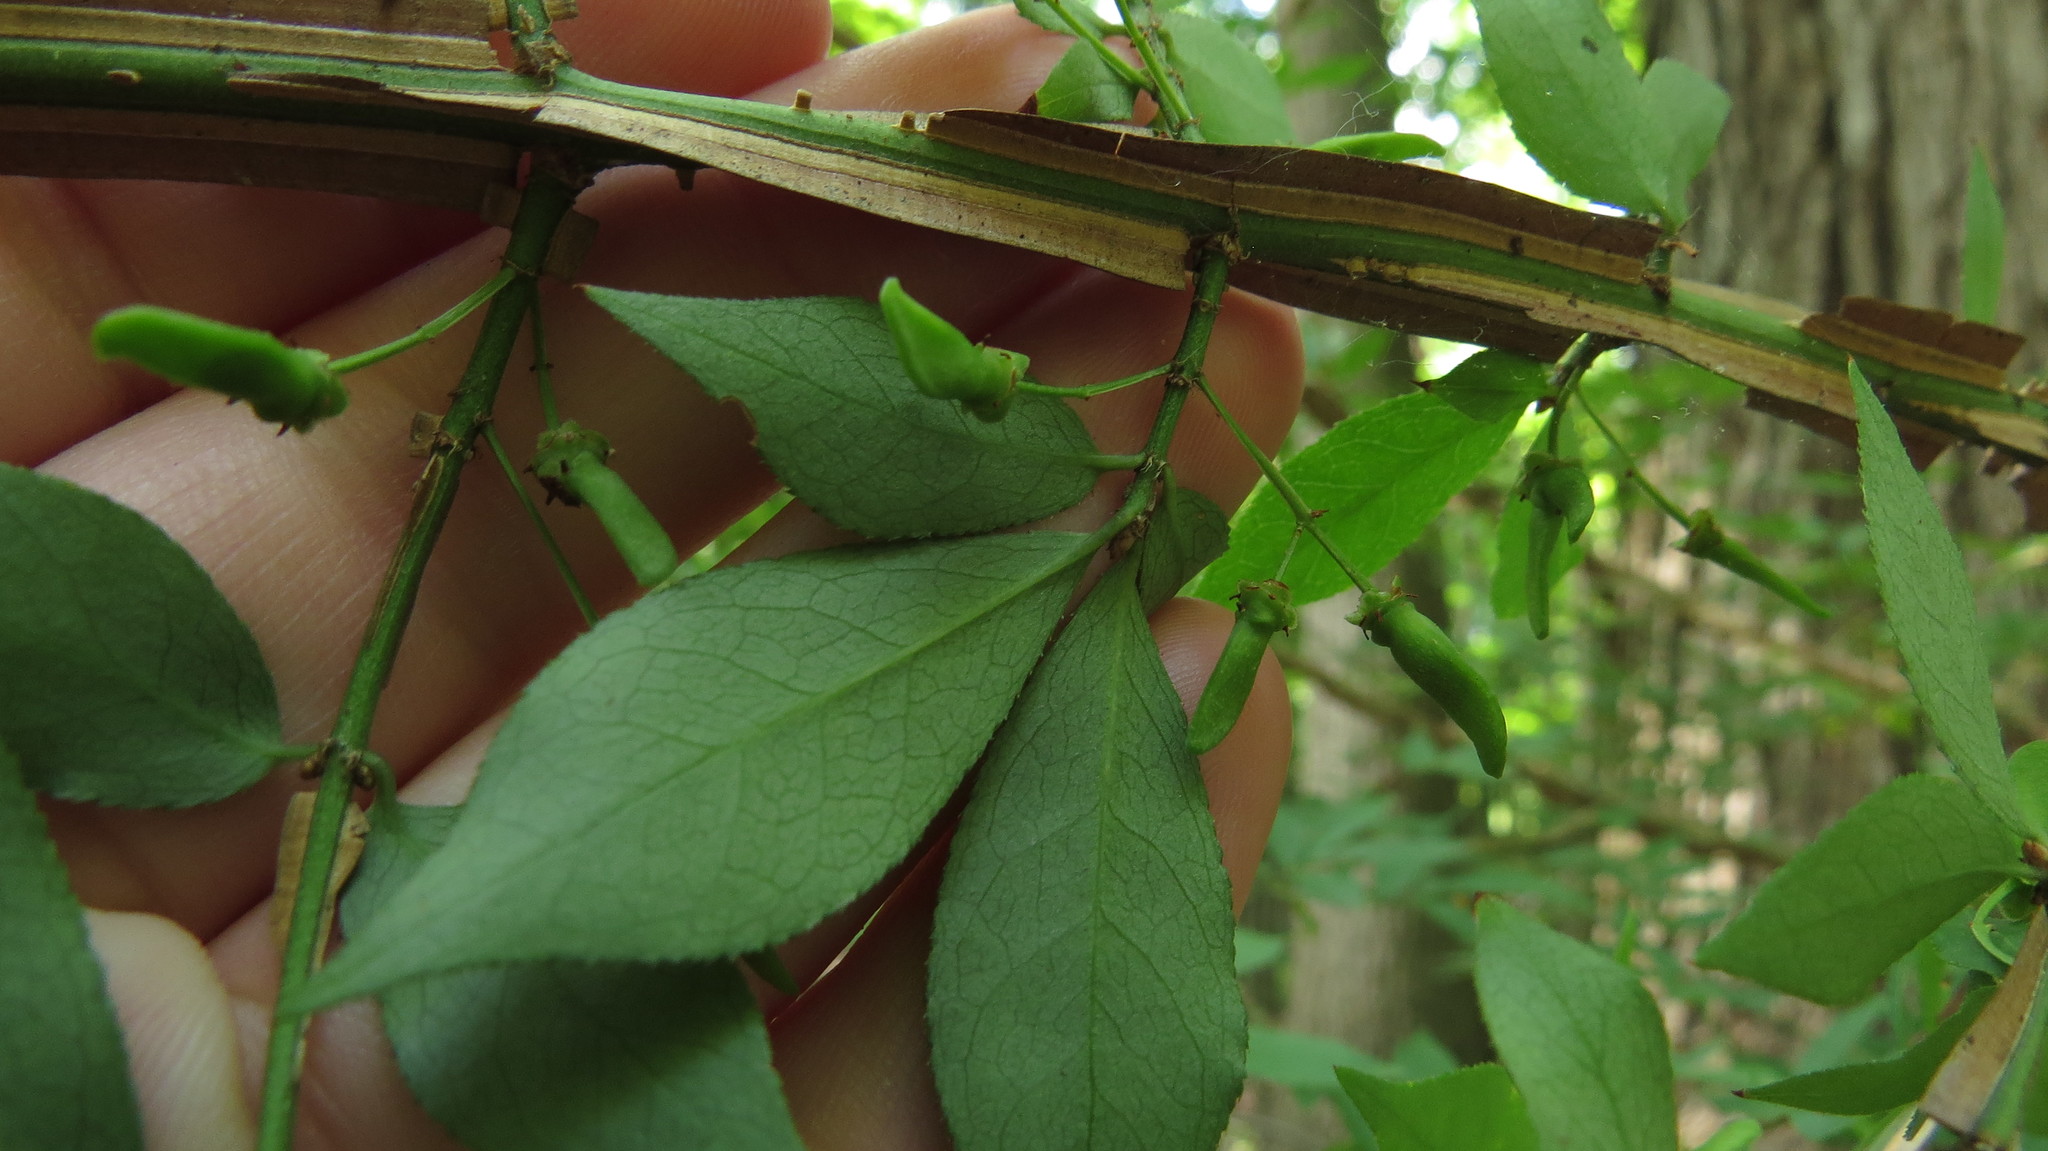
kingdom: Plantae
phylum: Tracheophyta
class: Magnoliopsida
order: Celastrales
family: Celastraceae
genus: Euonymus
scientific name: Euonymus alatus
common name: Winged euonymus
